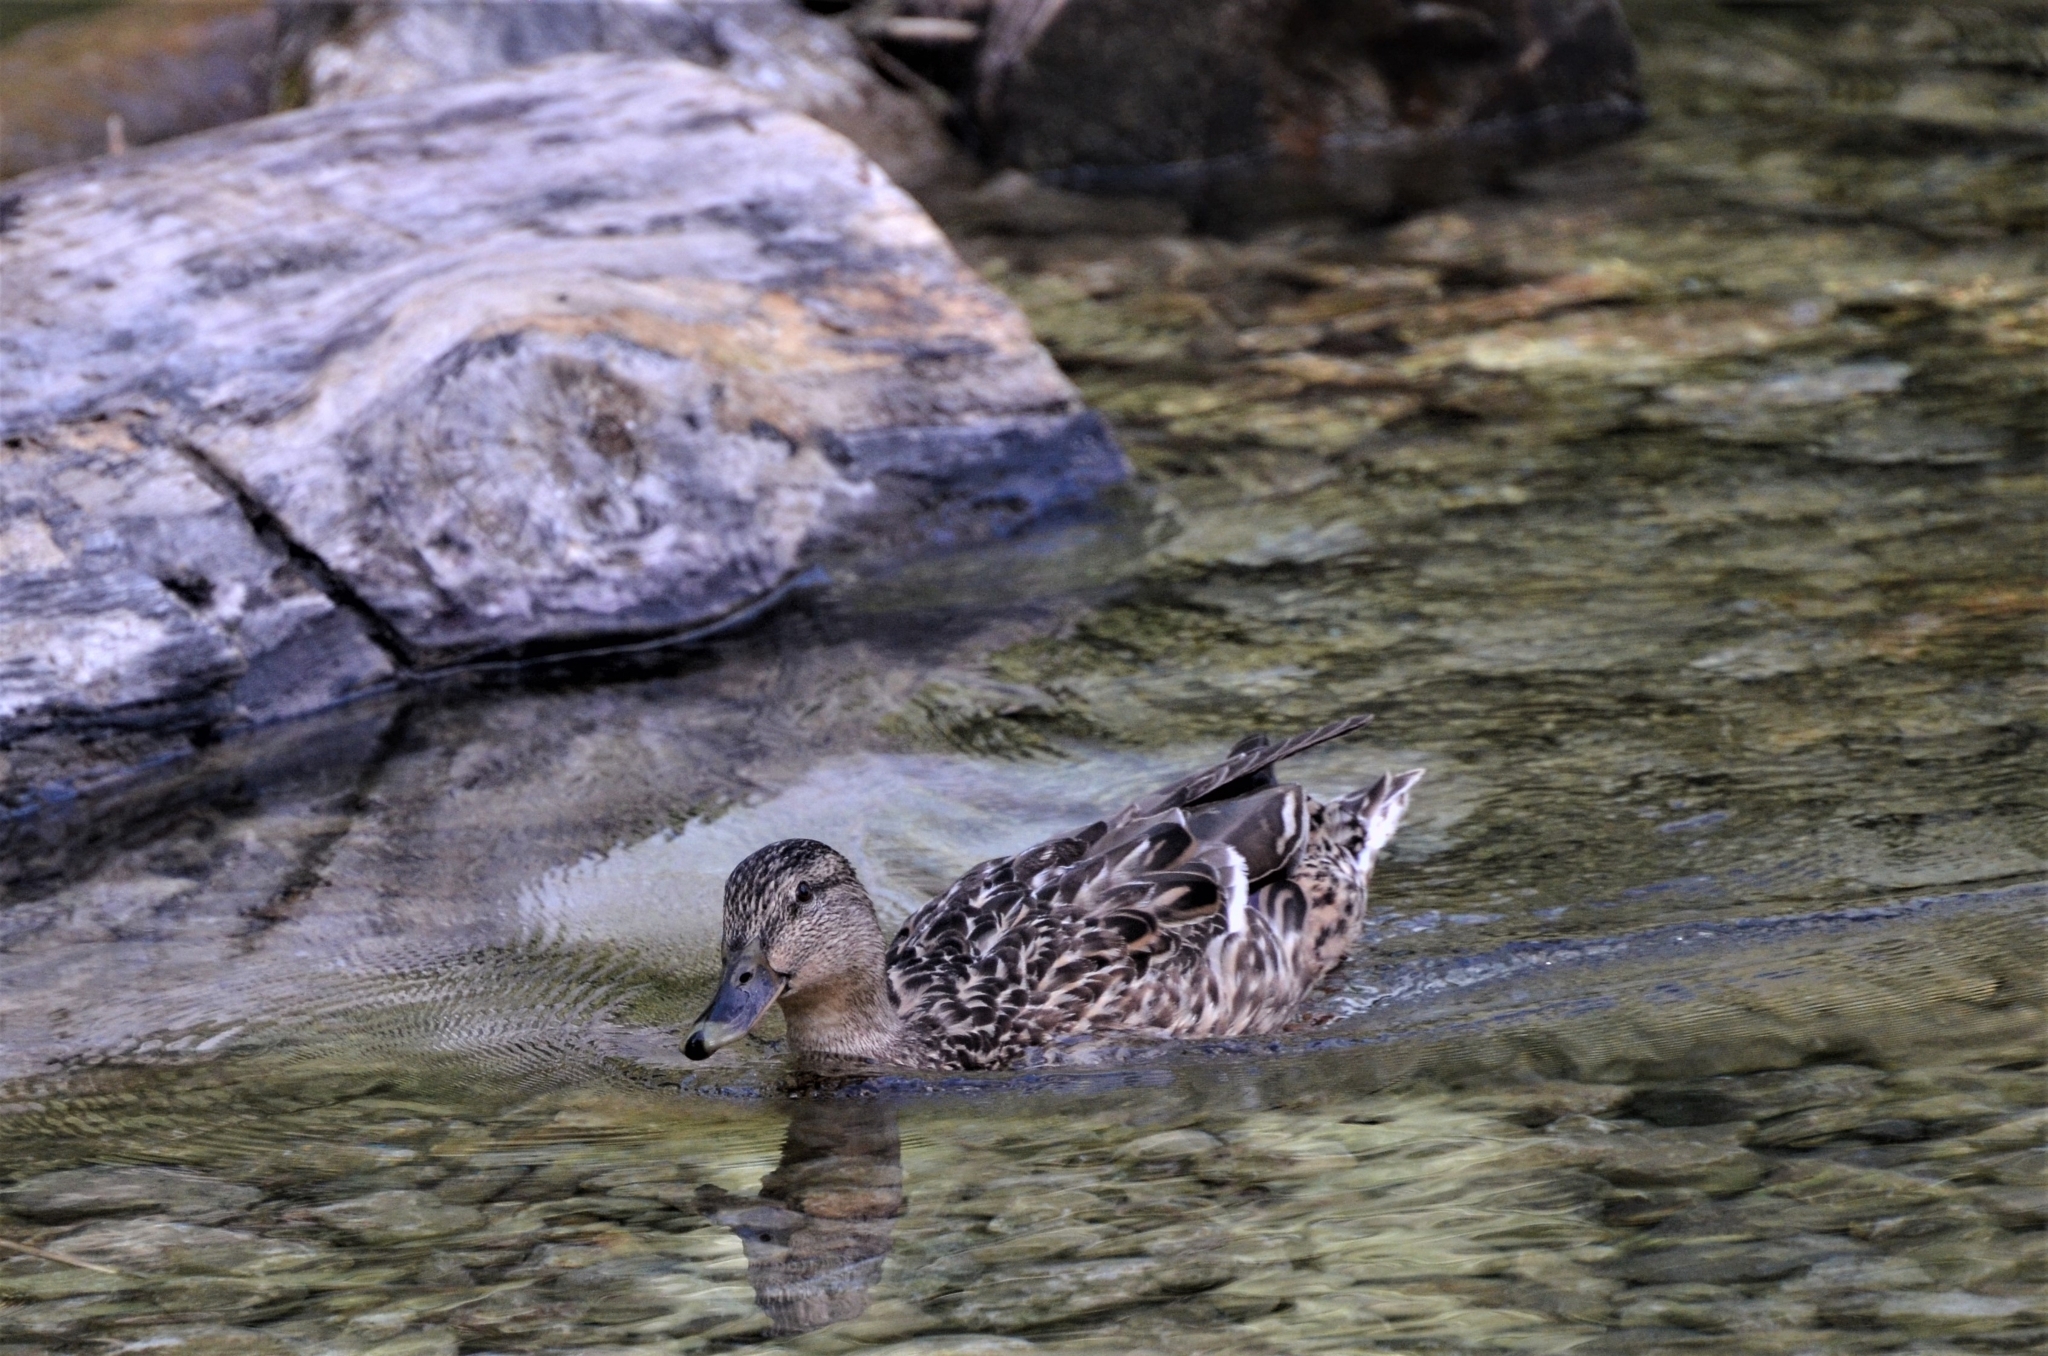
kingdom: Animalia
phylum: Chordata
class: Aves
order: Anseriformes
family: Anatidae
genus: Anas
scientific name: Anas platyrhynchos
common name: Mallard
